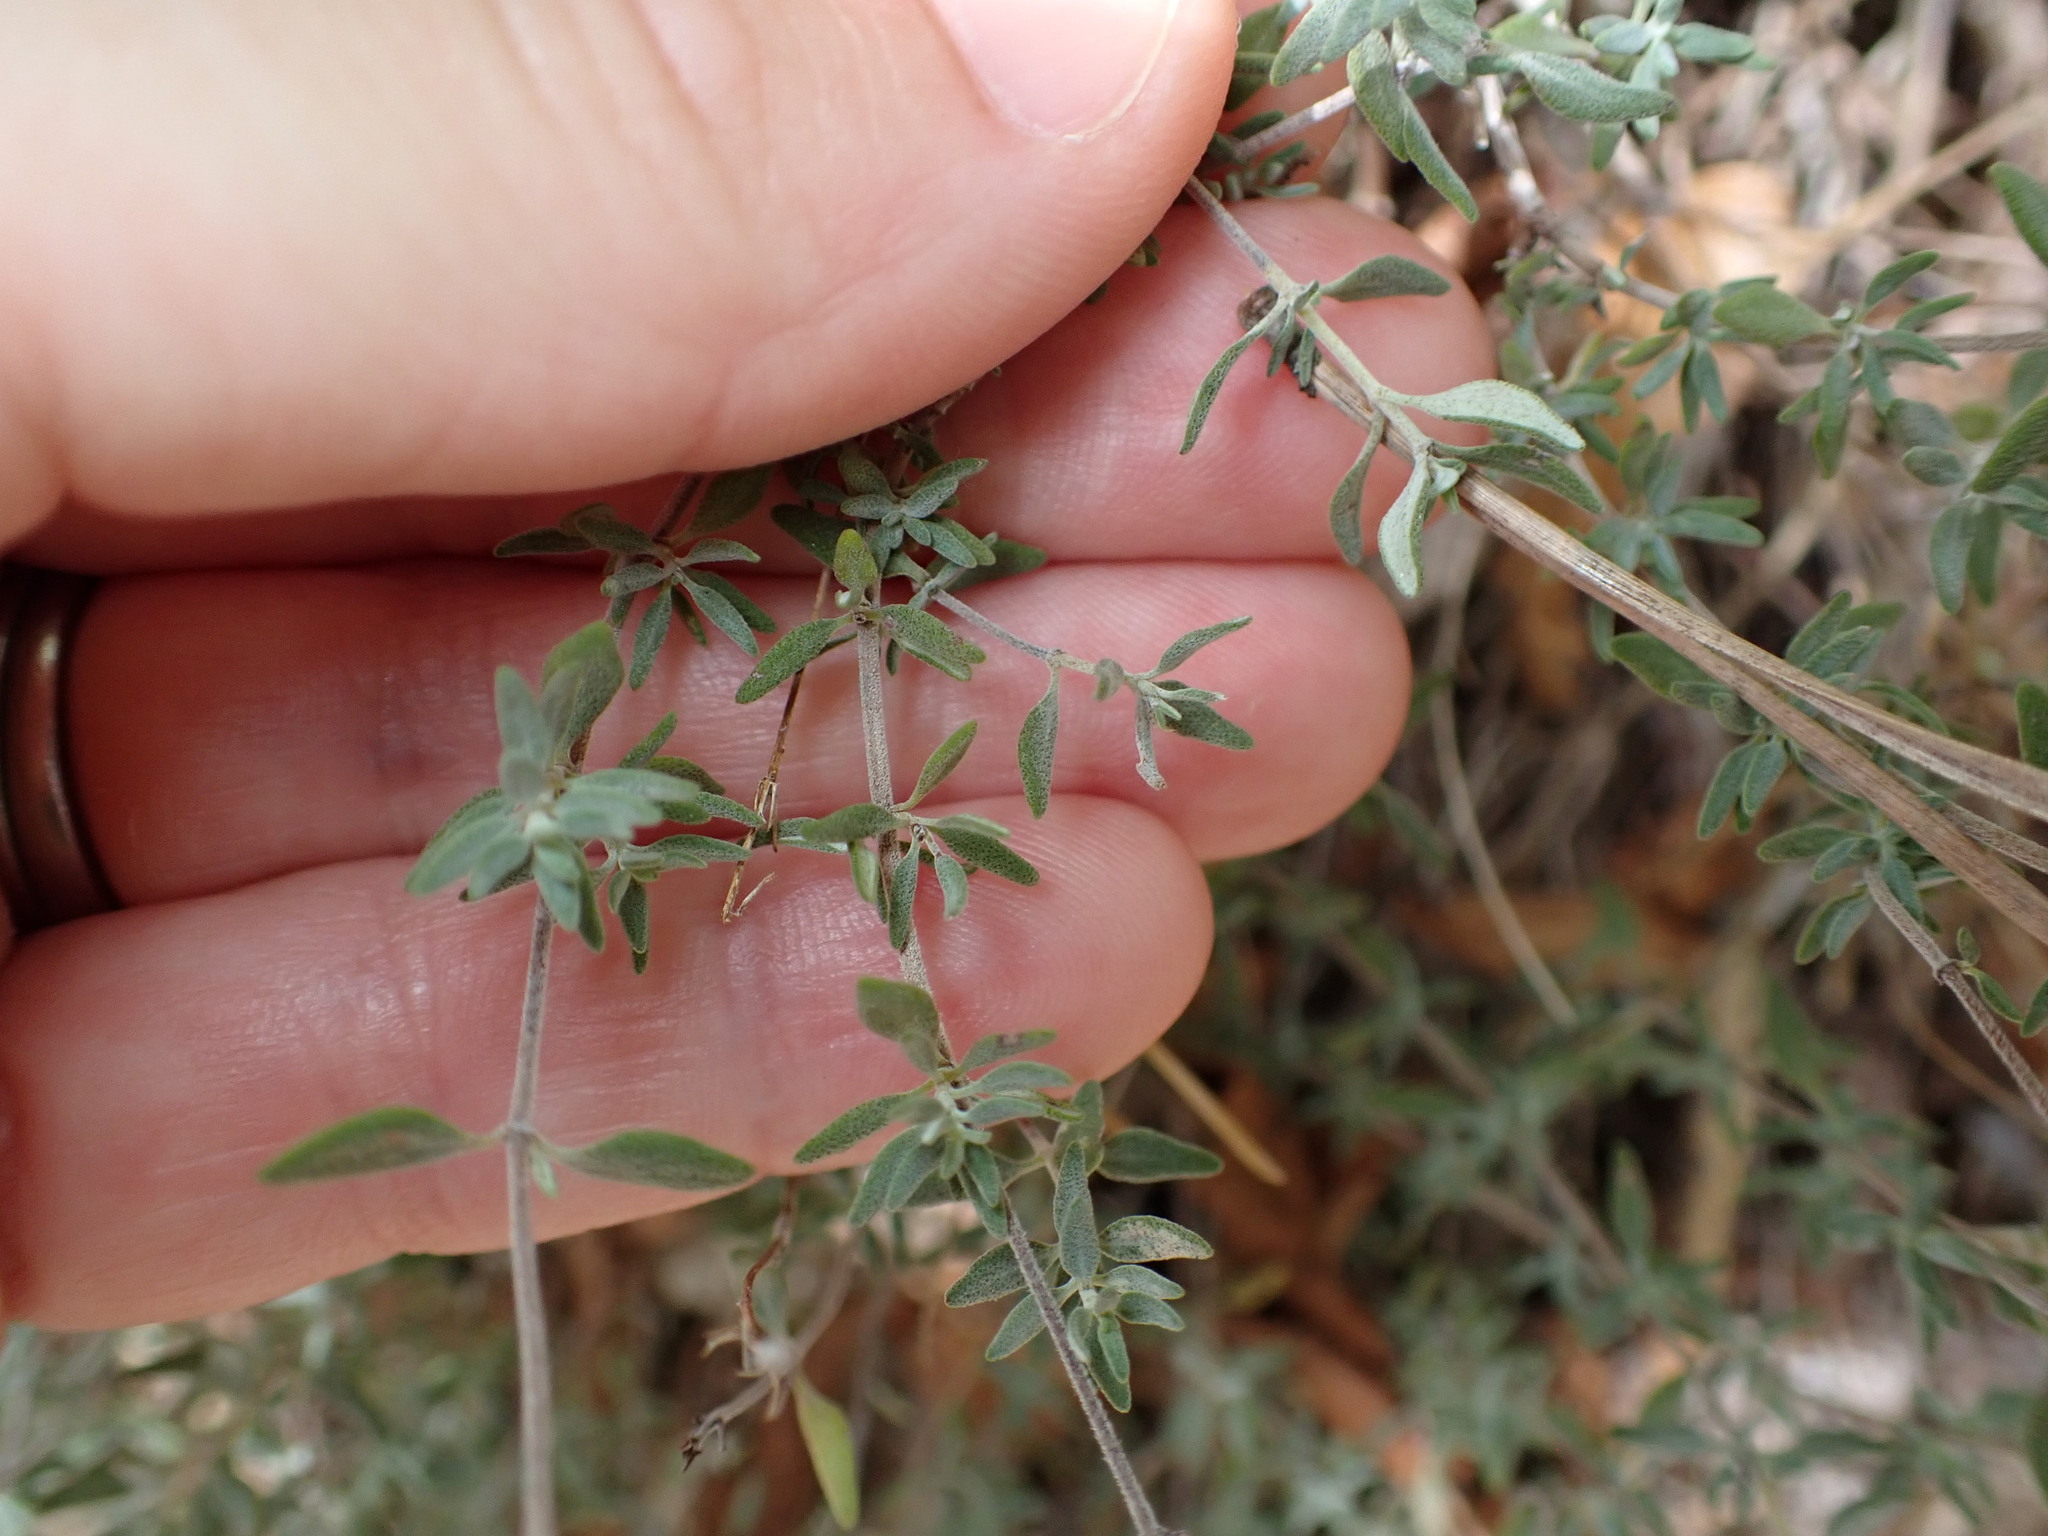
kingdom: Plantae
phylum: Tracheophyta
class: Magnoliopsida
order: Lamiales
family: Lamiaceae
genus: Thymus
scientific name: Thymus vulgaris
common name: Garden thyme
